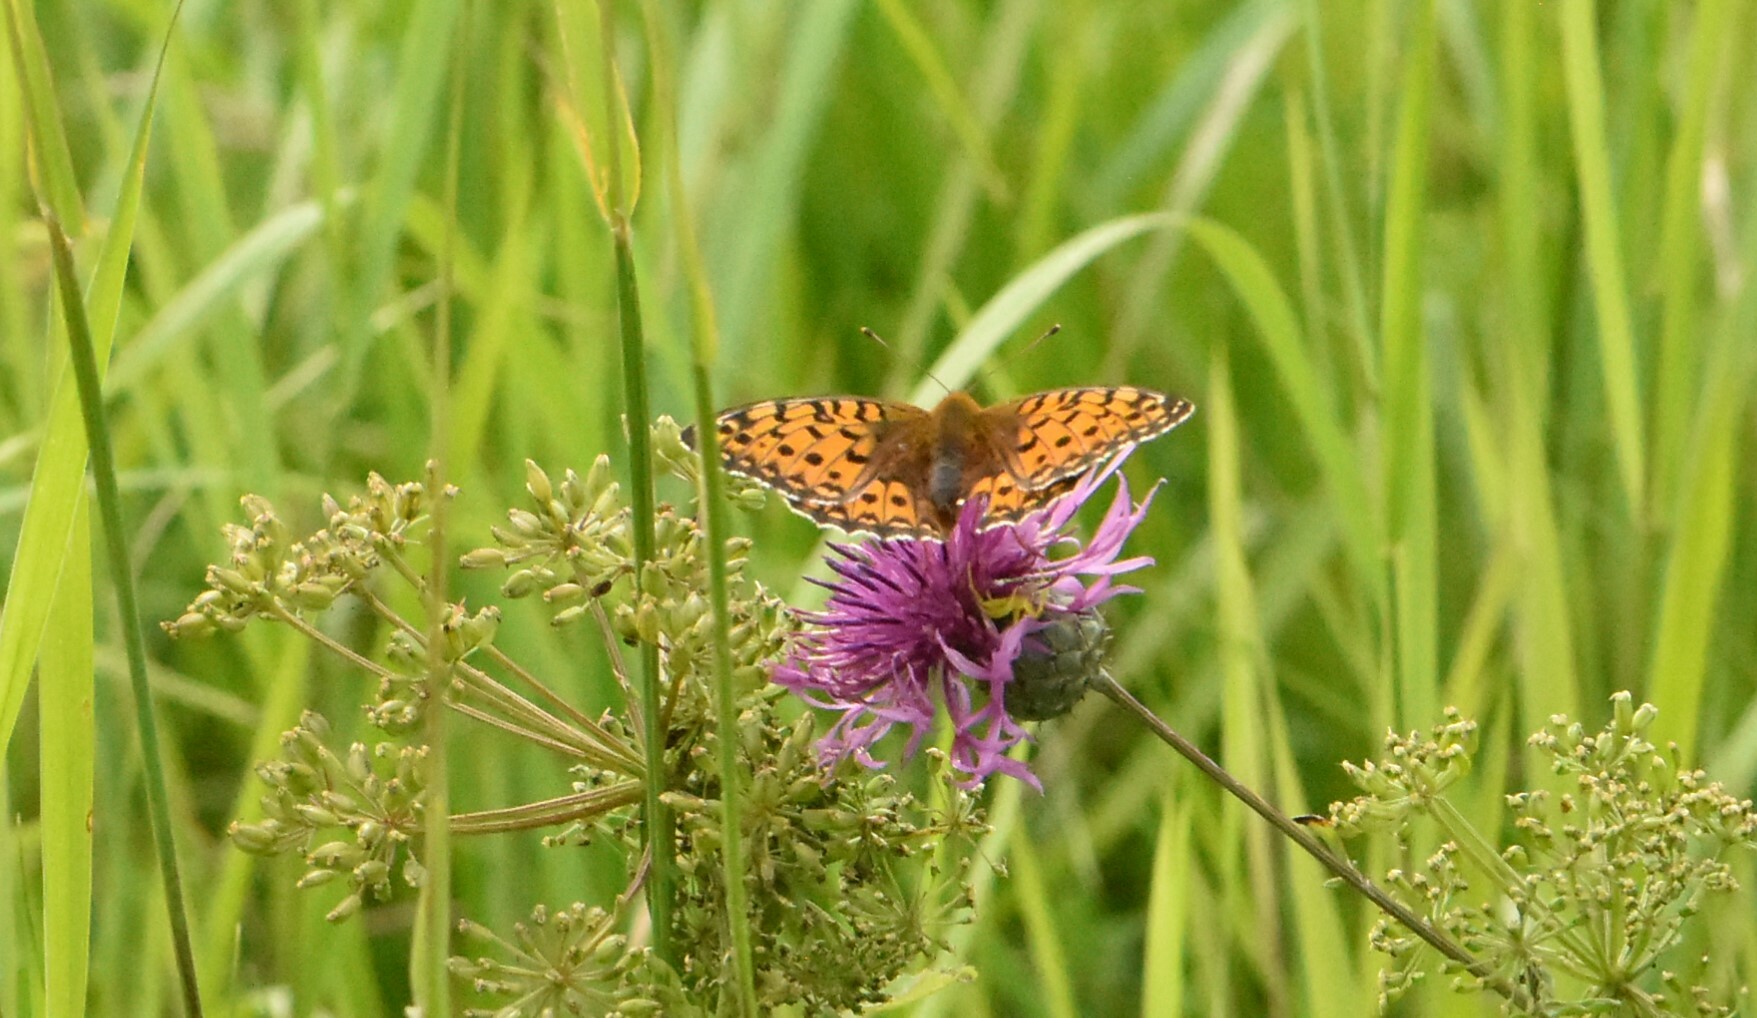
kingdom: Animalia
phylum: Arthropoda
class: Insecta
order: Lepidoptera
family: Nymphalidae
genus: Speyeria
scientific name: Speyeria aglaja
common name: Dark green fritillary
